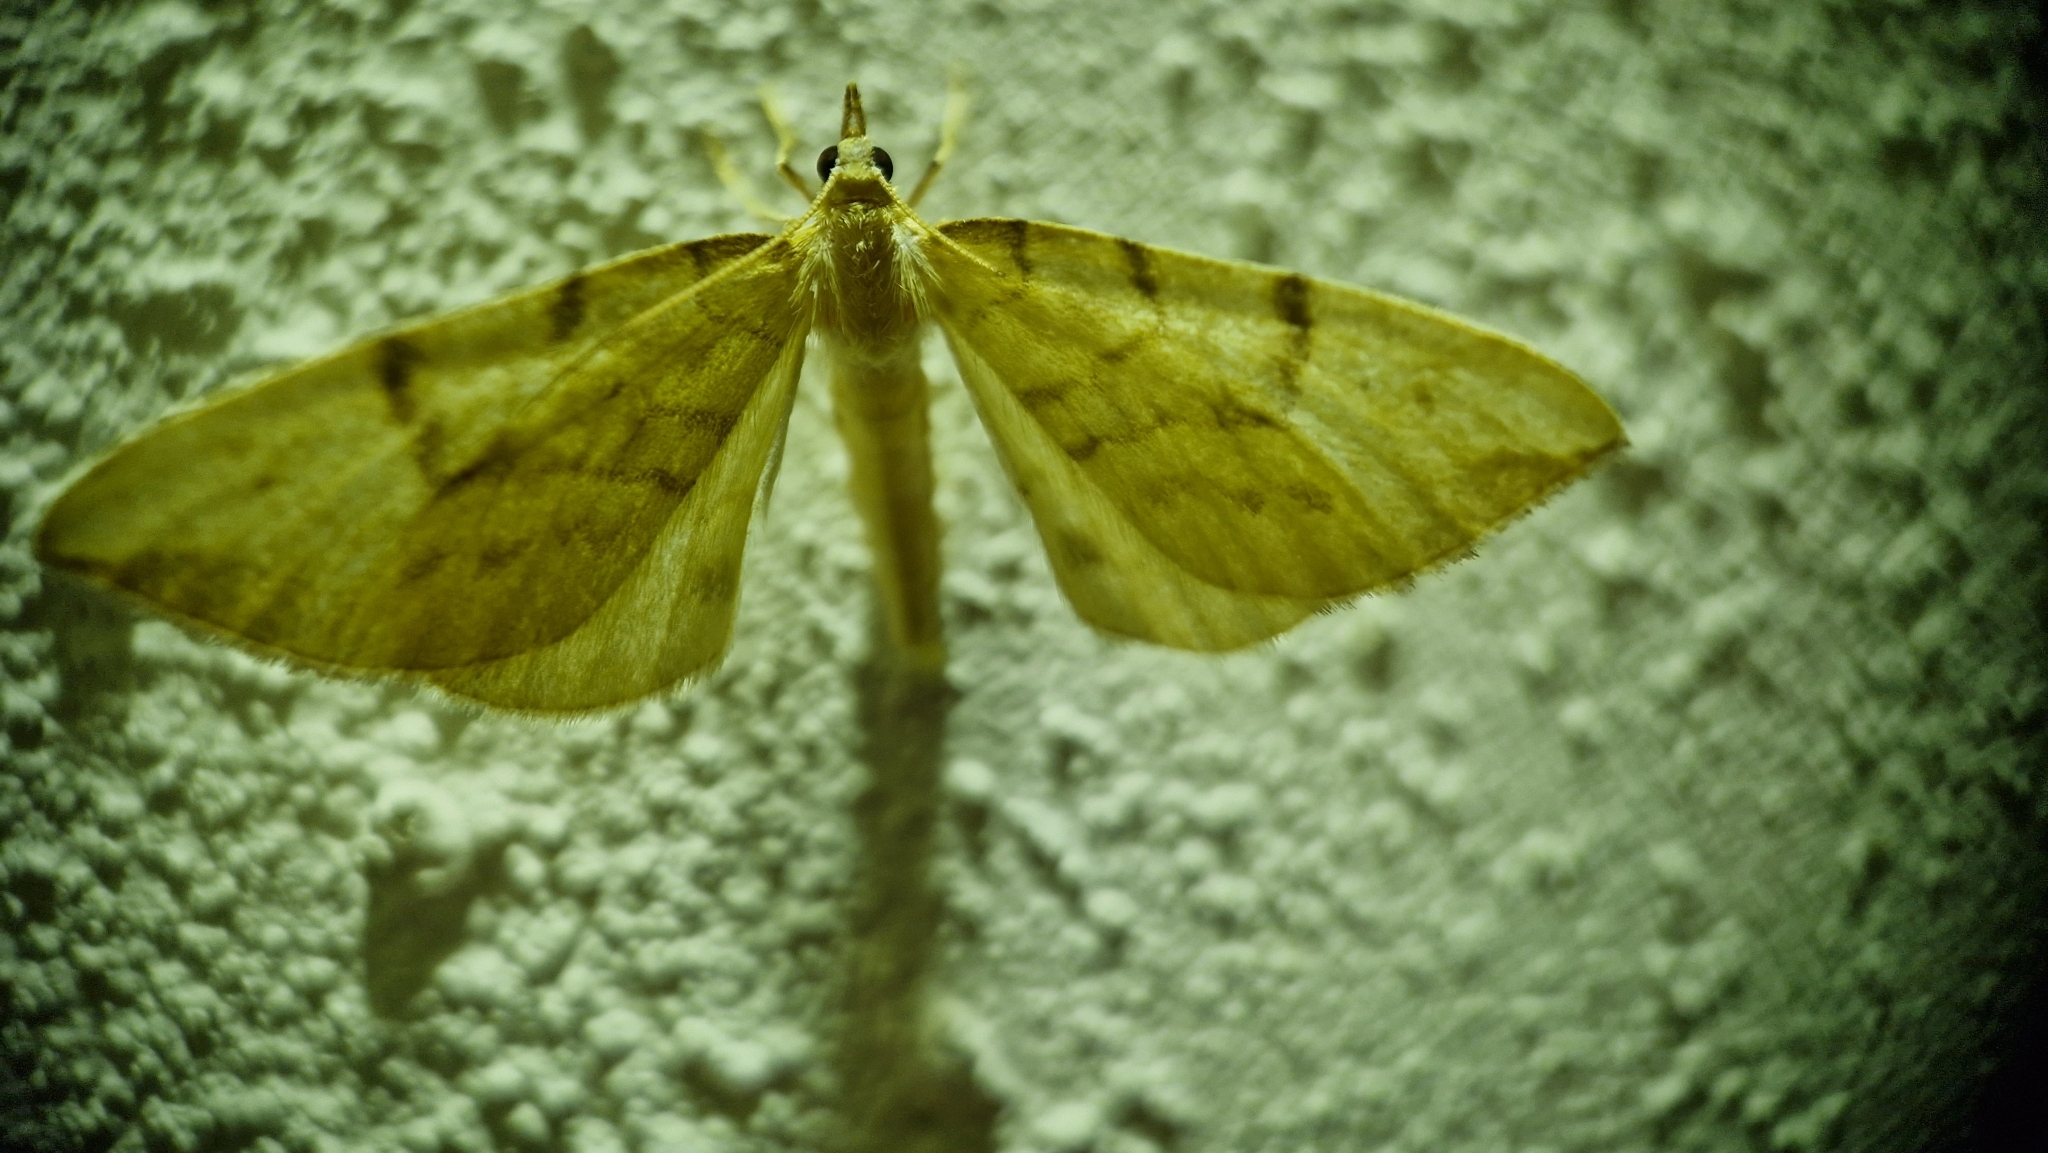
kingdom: Animalia
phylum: Arthropoda
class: Insecta
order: Lepidoptera
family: Geometridae
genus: Eulithis
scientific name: Eulithis pyraliata
